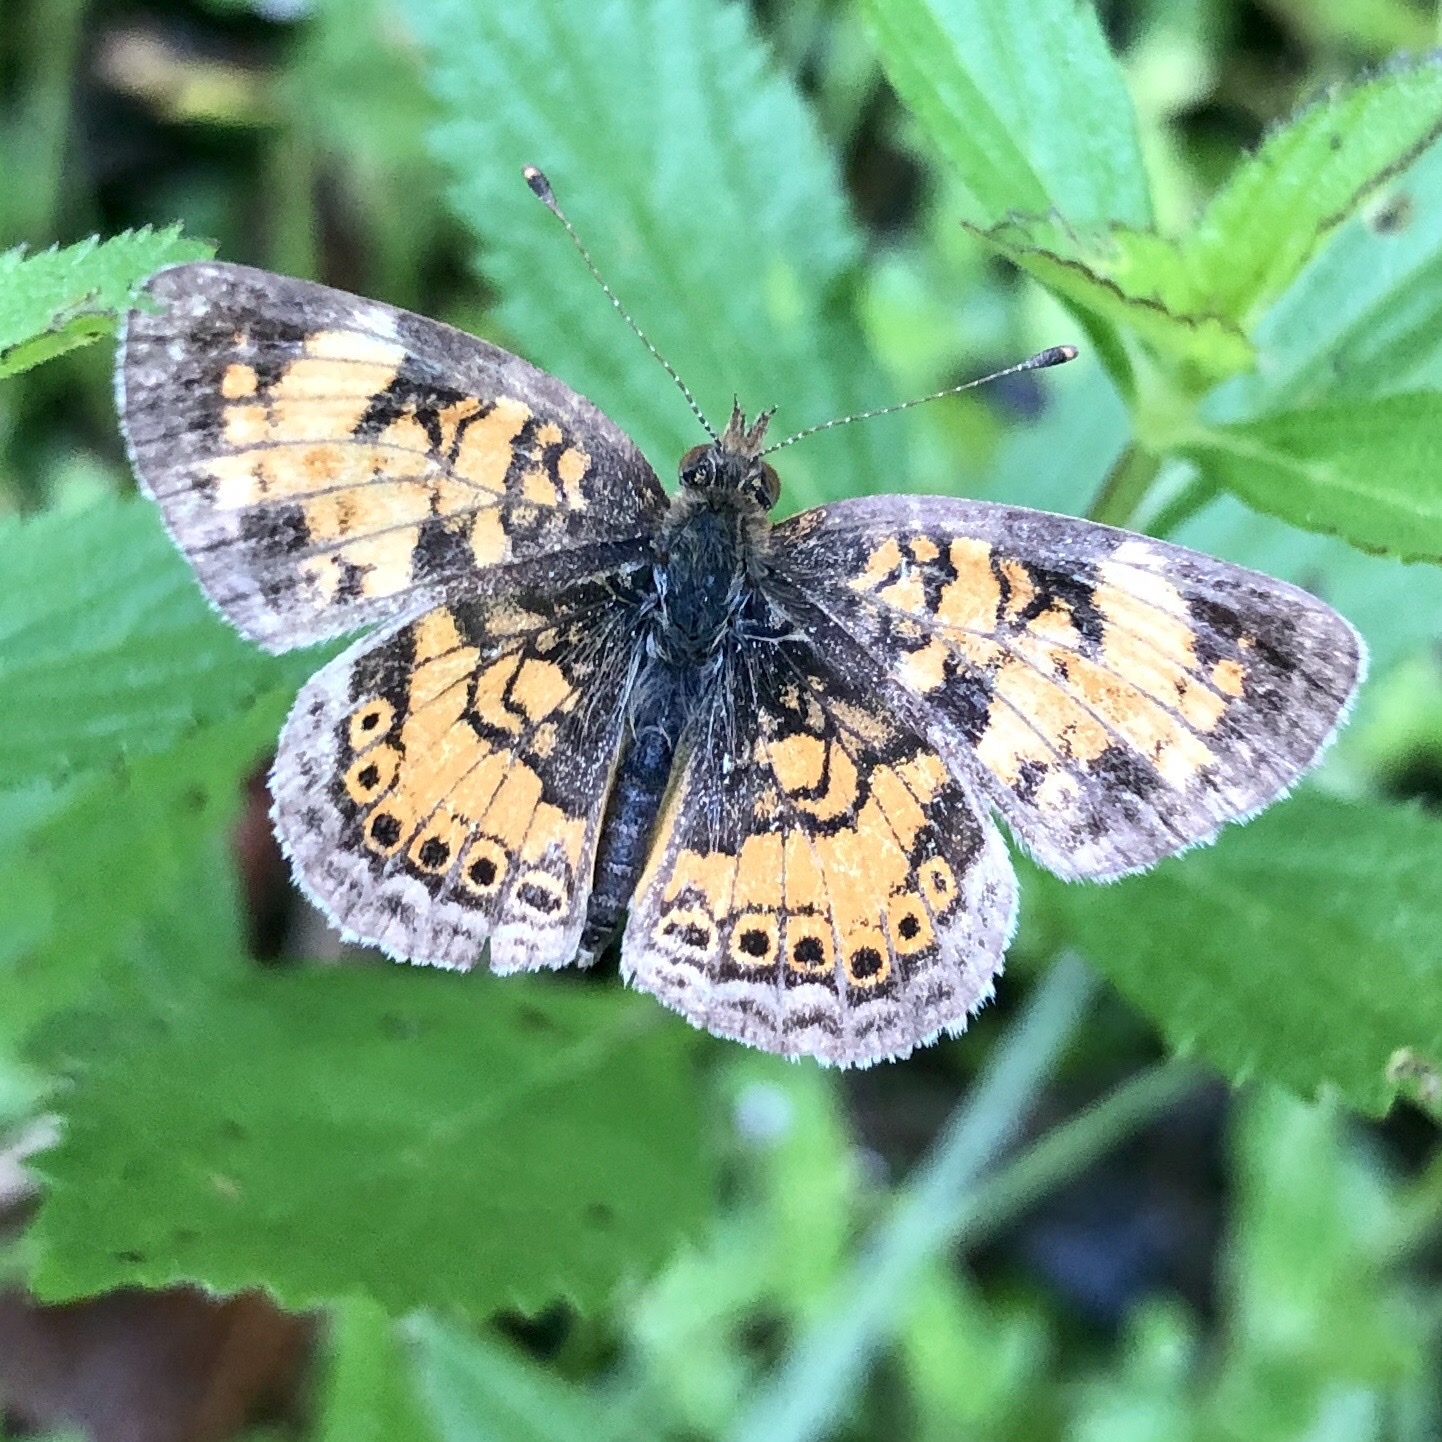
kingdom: Animalia
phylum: Arthropoda
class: Insecta
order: Lepidoptera
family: Nymphalidae
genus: Phyciodes
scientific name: Phyciodes tharos
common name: Pearl crescent
